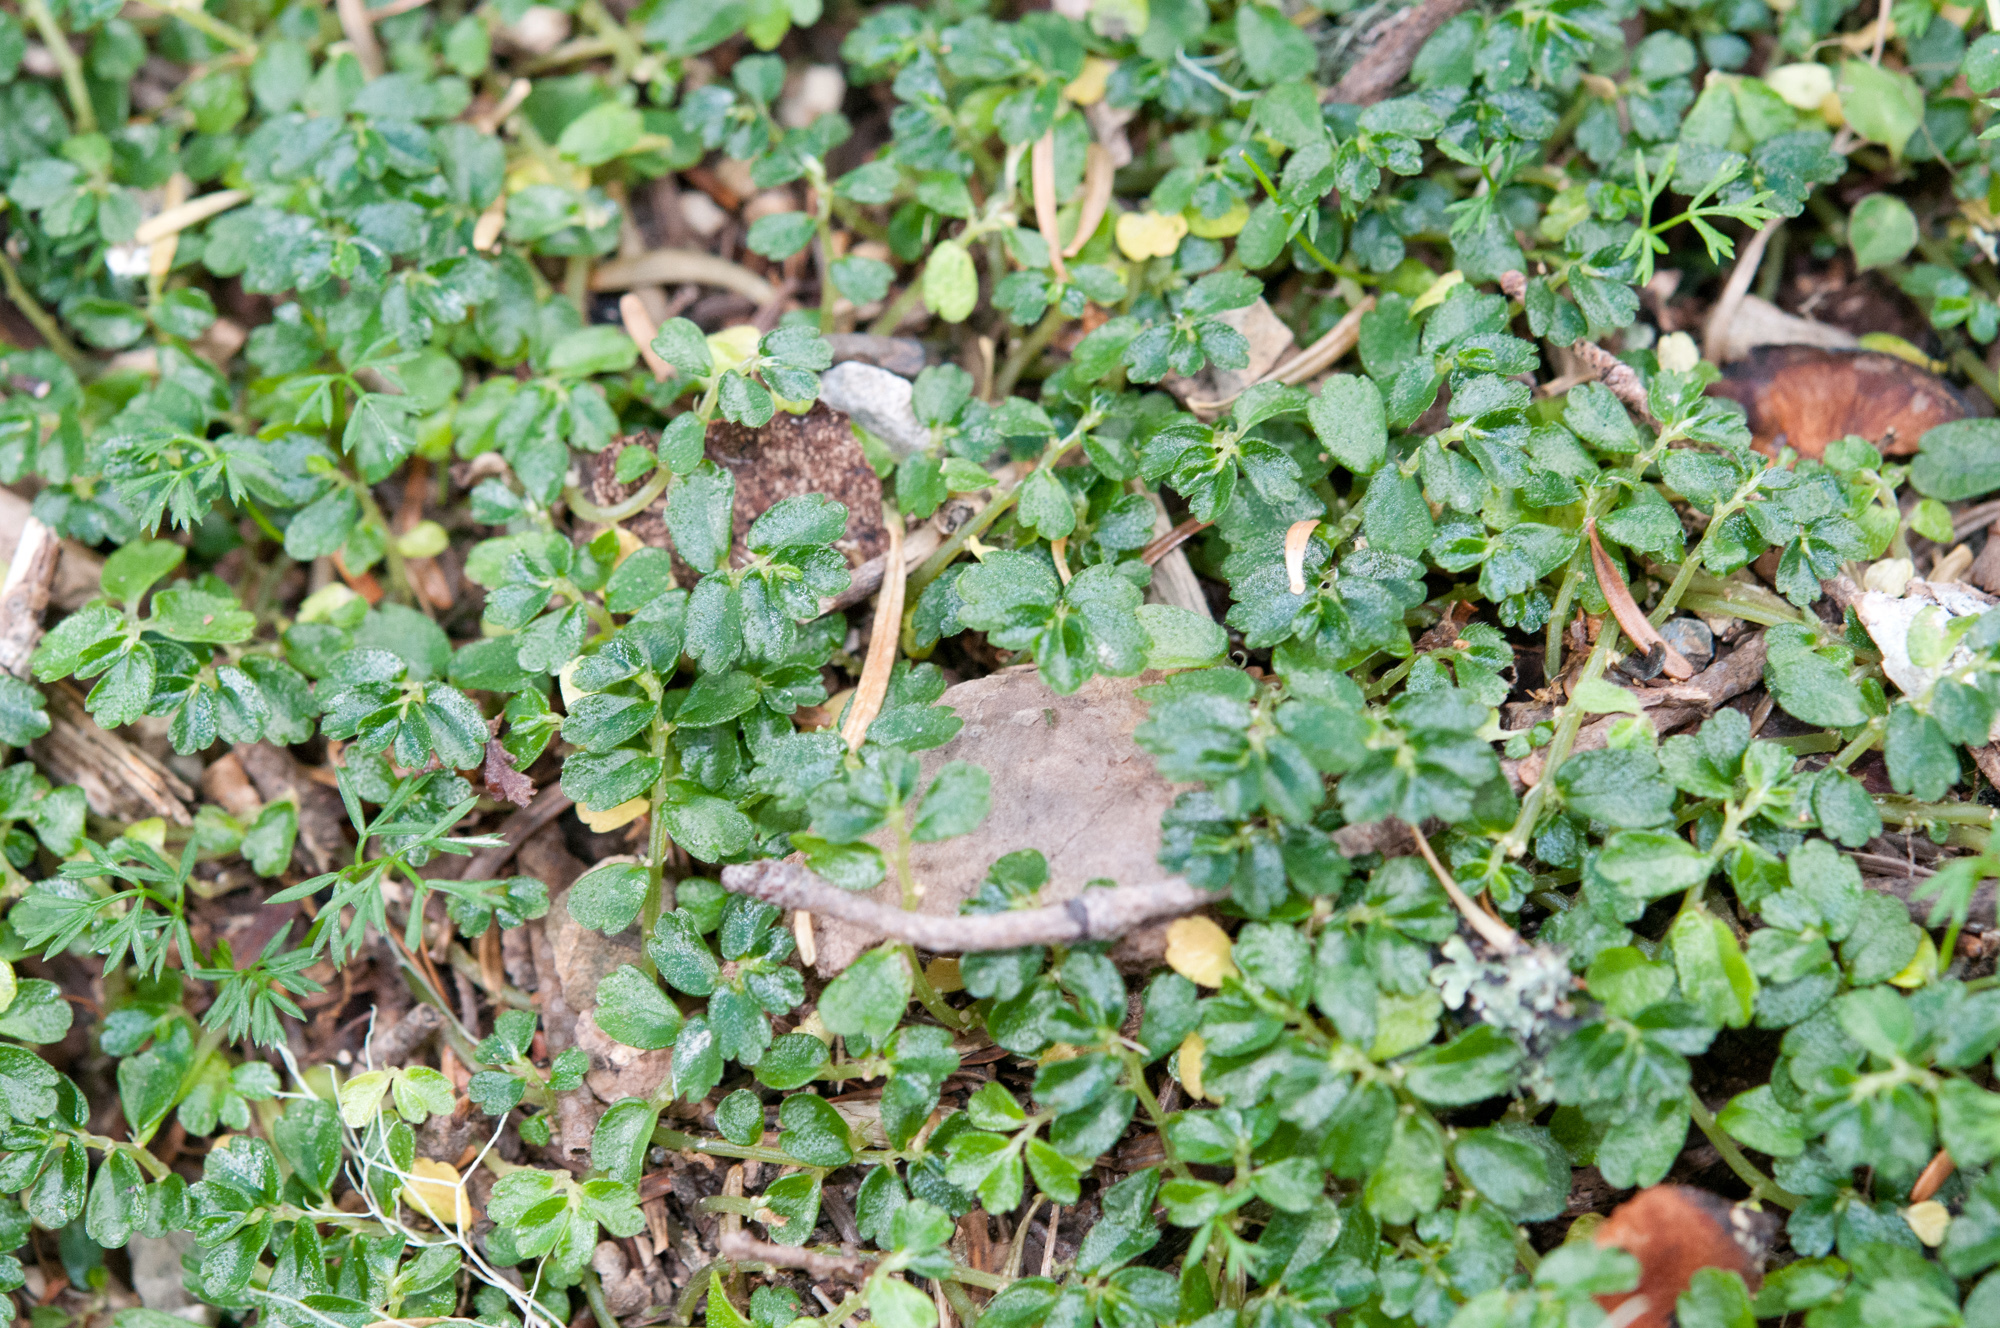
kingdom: Plantae
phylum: Tracheophyta
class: Magnoliopsida
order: Rosales
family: Urticaceae
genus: Elatostema
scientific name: Elatostema obtusum
